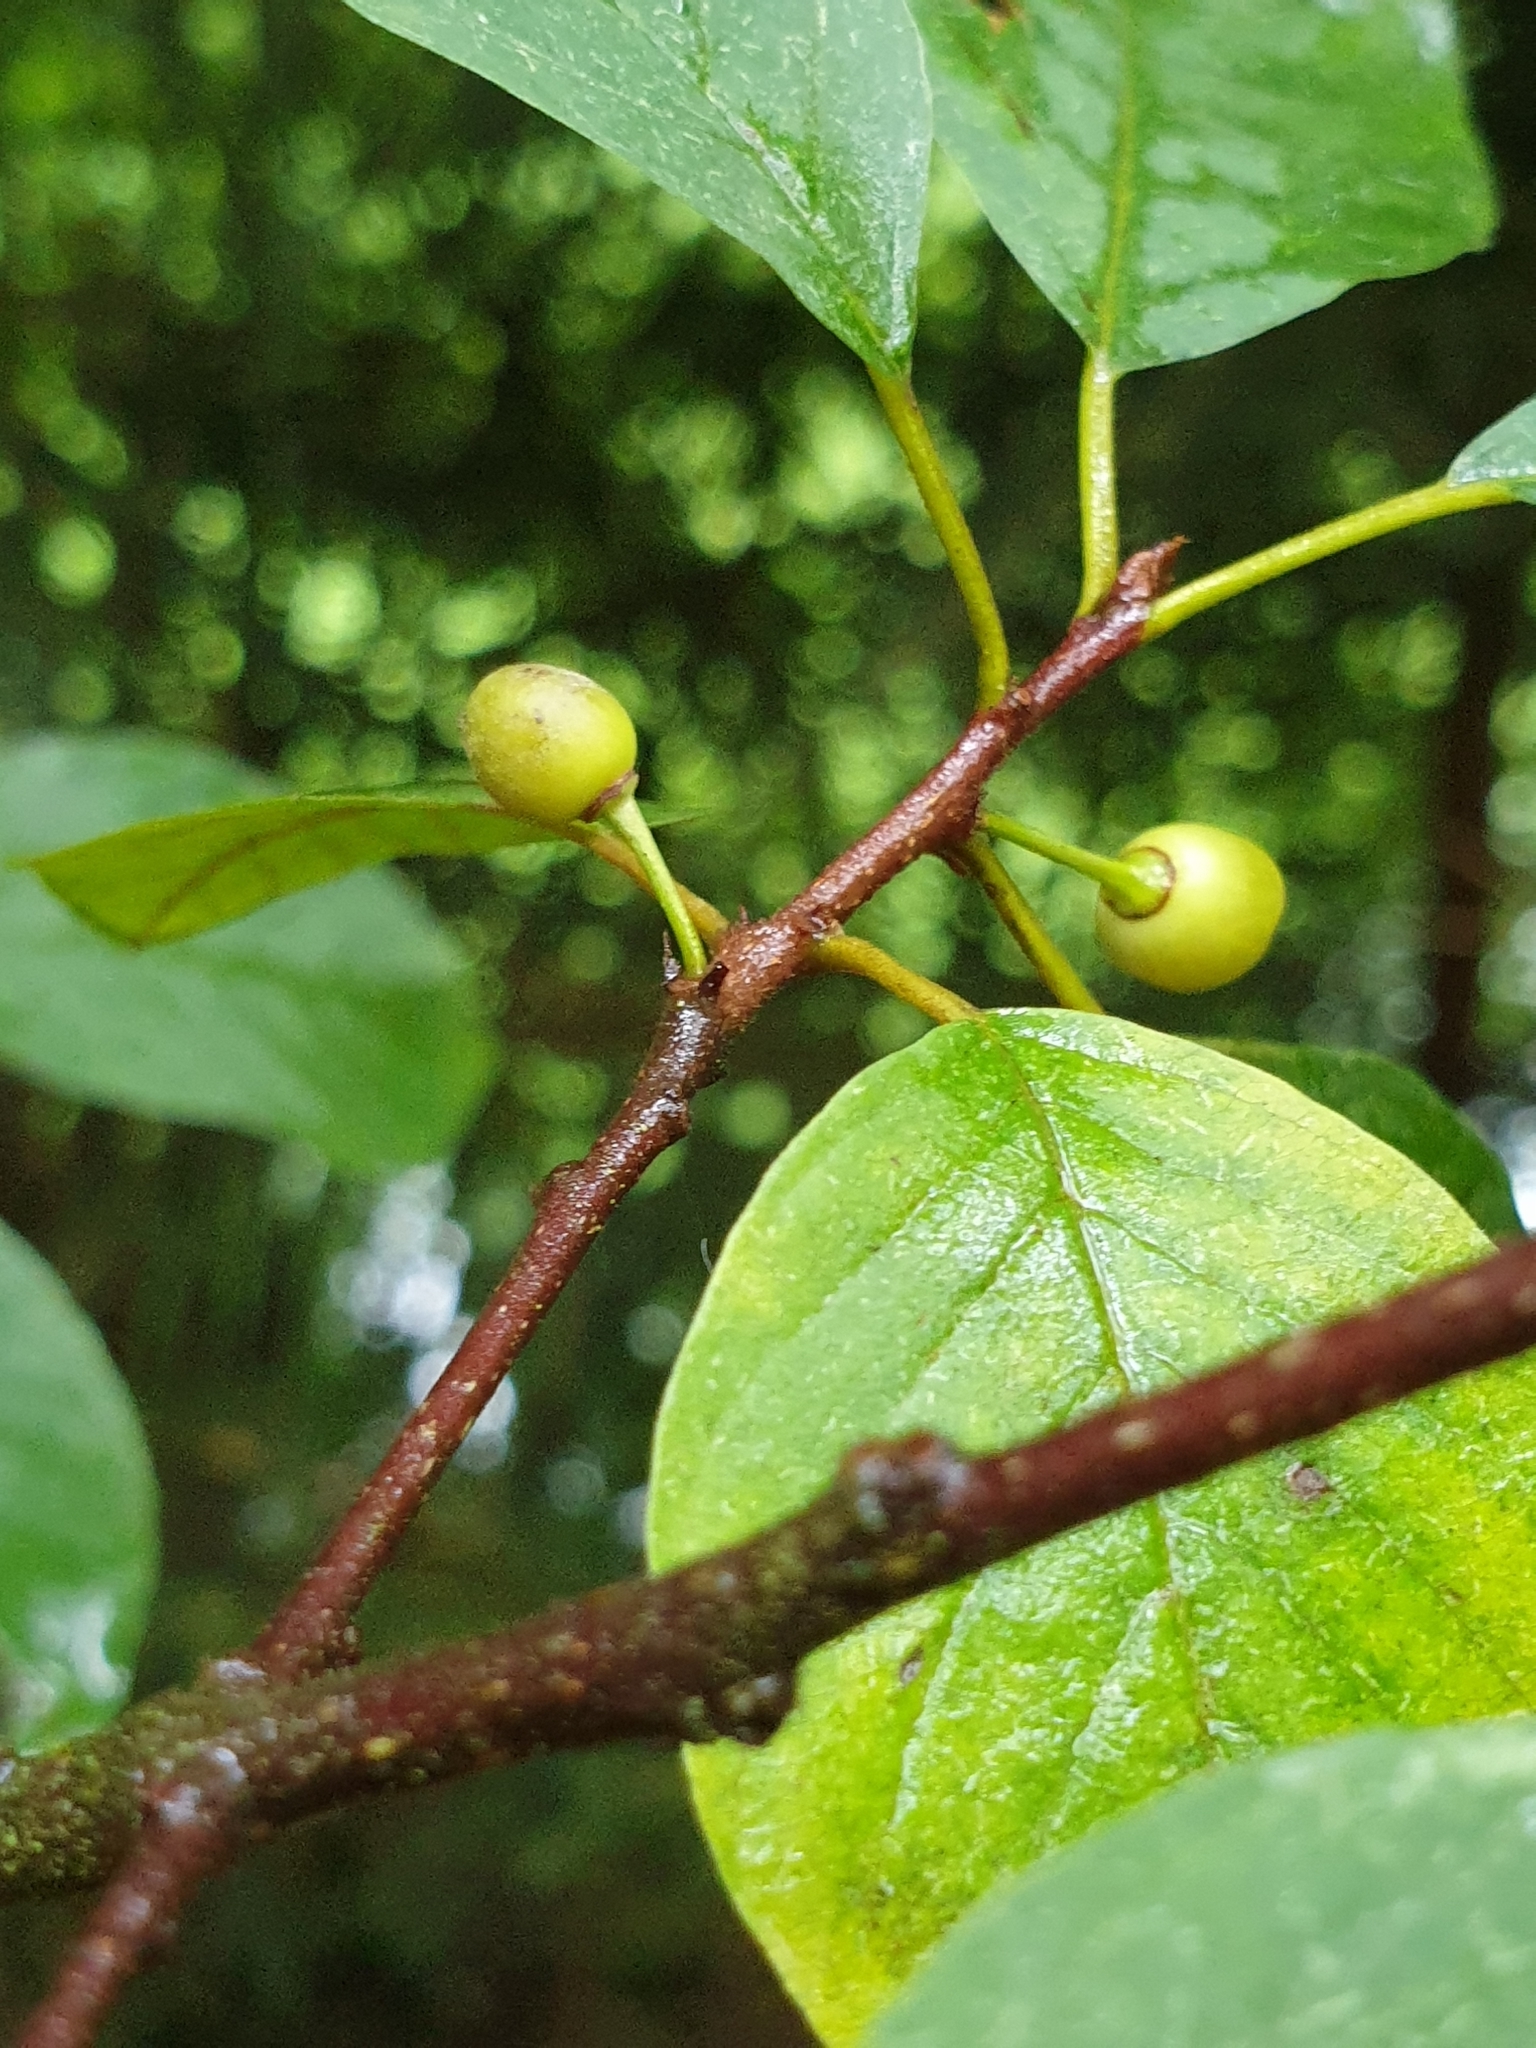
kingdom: Plantae
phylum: Tracheophyta
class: Magnoliopsida
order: Rosales
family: Rhamnaceae
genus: Frangula
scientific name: Frangula alnus
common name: Alder buckthorn
